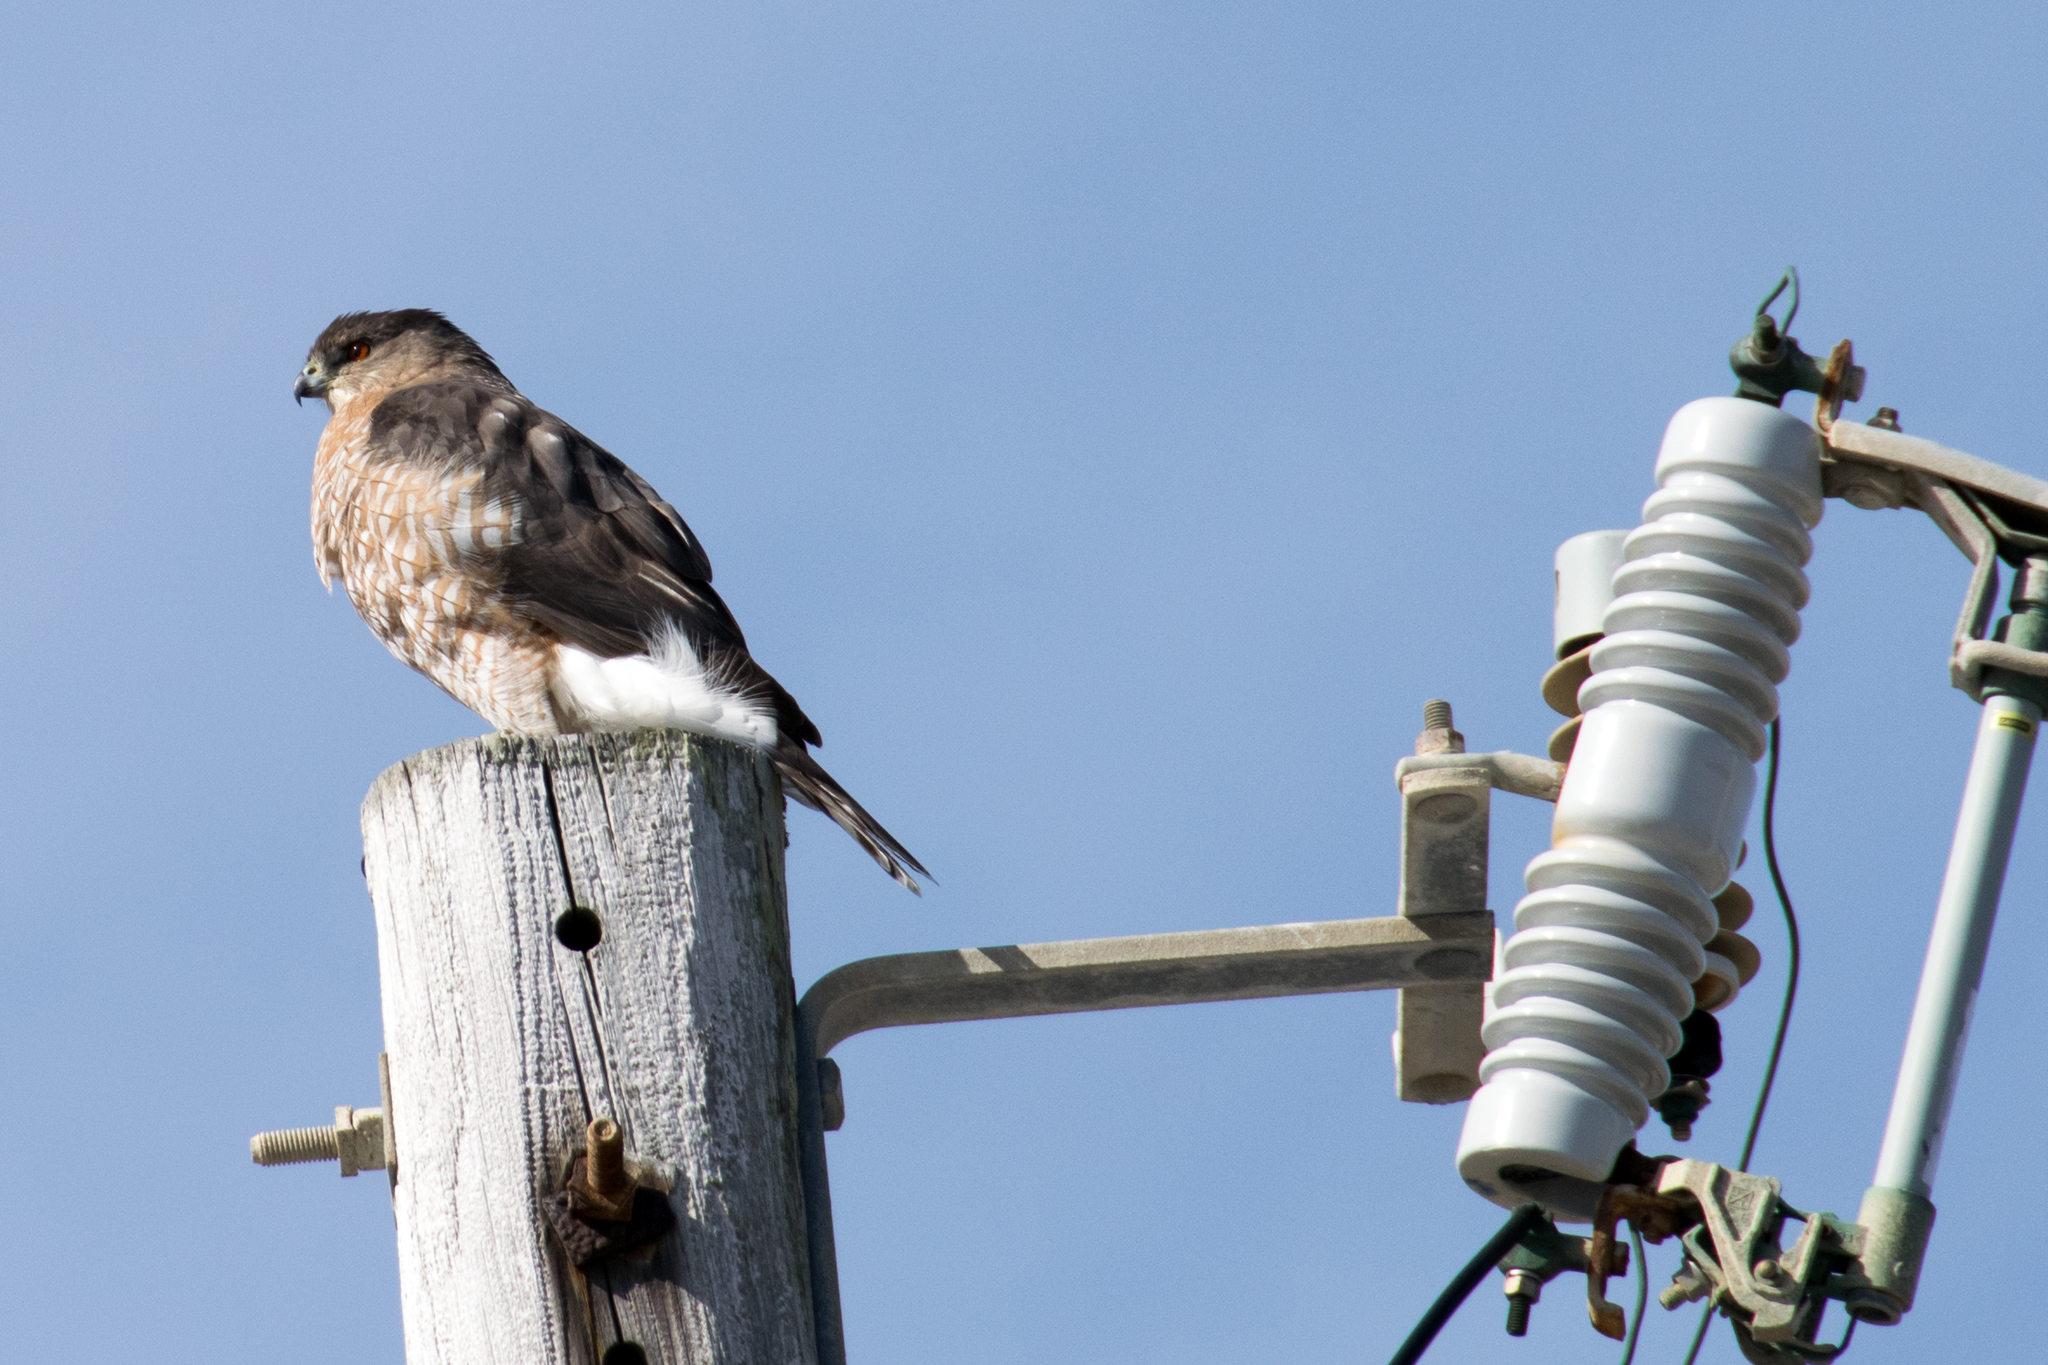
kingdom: Animalia
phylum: Chordata
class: Aves
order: Accipitriformes
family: Accipitridae
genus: Accipiter
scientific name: Accipiter cooperii
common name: Cooper's hawk
